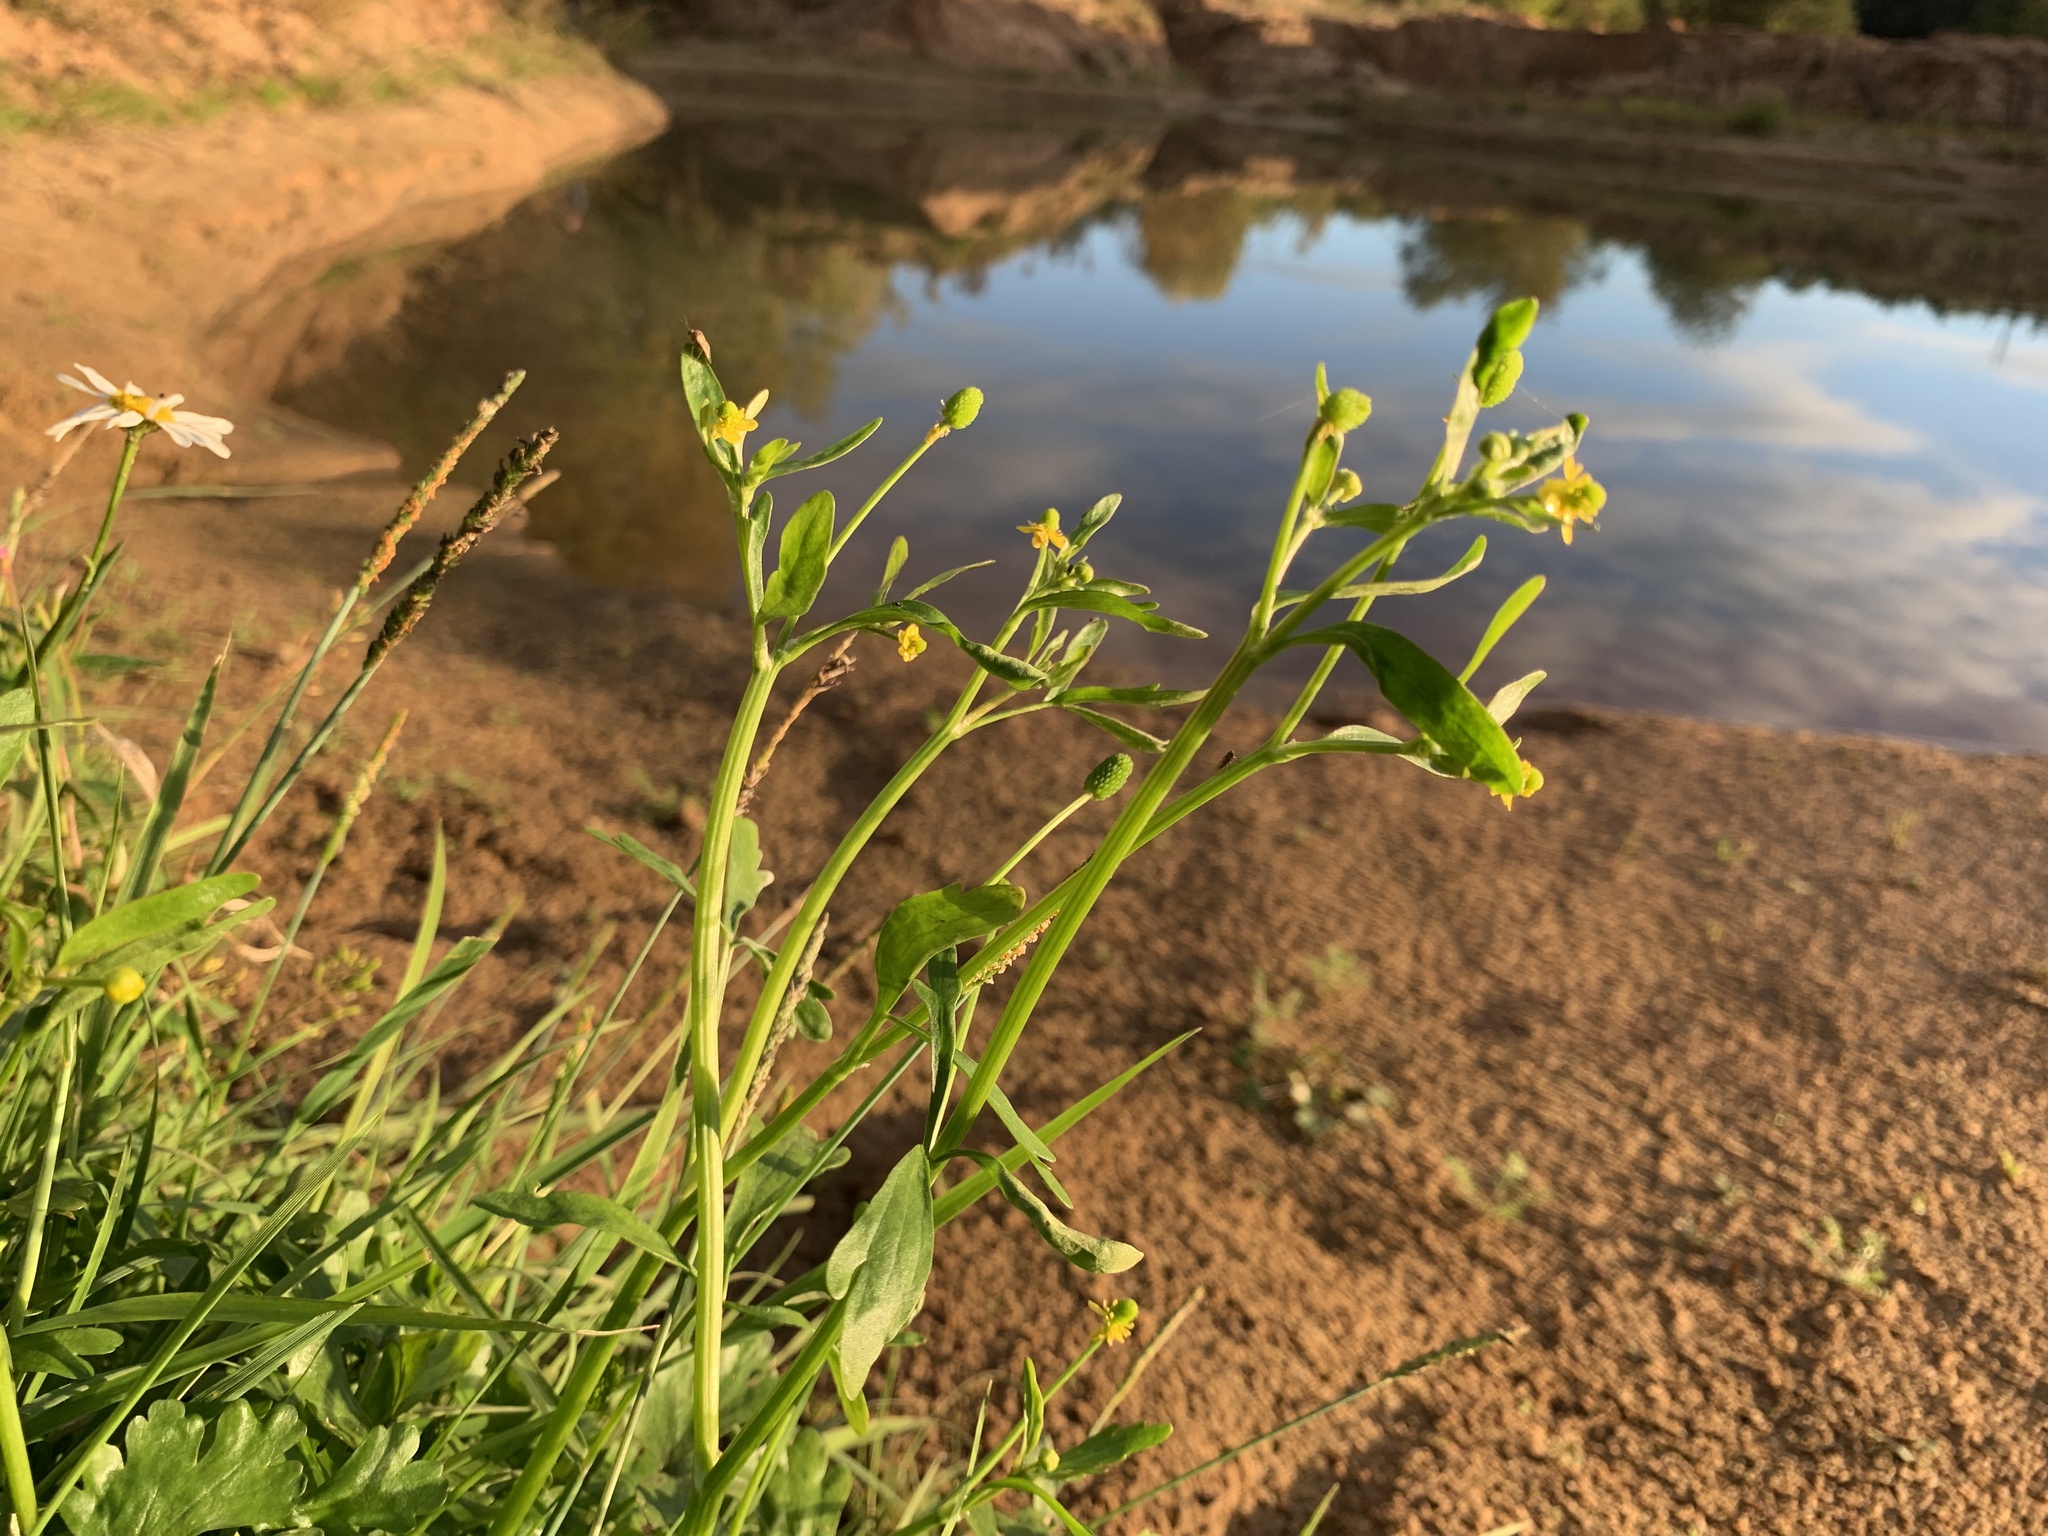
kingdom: Plantae
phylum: Tracheophyta
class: Magnoliopsida
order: Ranunculales
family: Ranunculaceae
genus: Ranunculus
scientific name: Ranunculus sceleratus
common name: Celery-leaved buttercup
